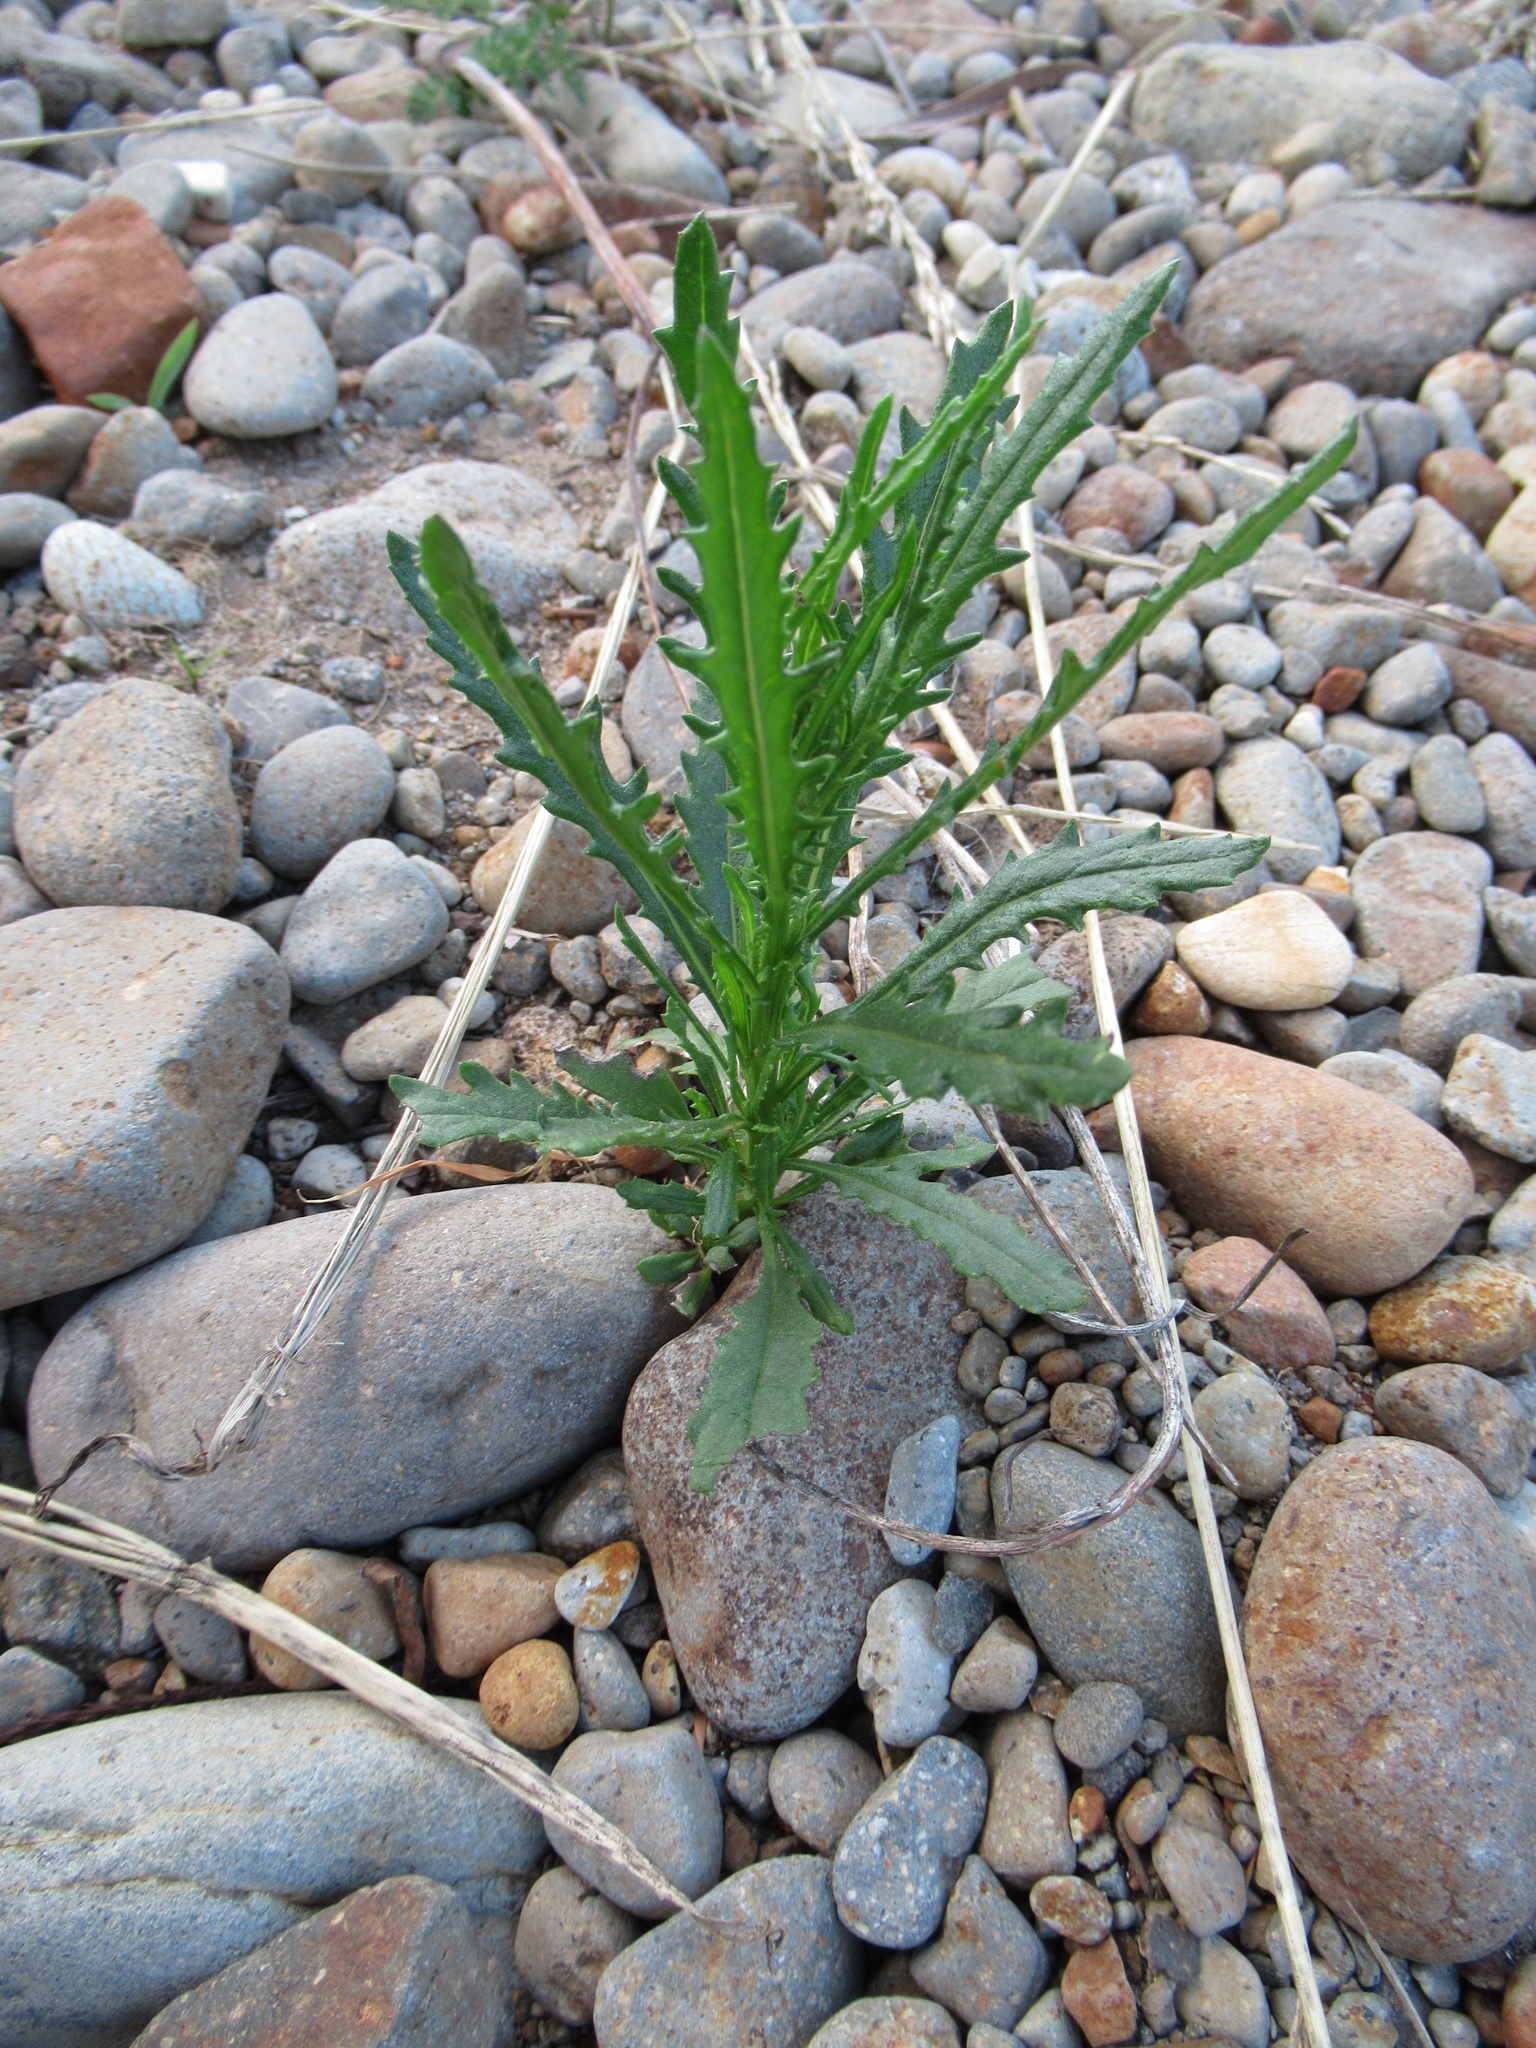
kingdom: Plantae
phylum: Tracheophyta
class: Magnoliopsida
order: Asterales
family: Asteraceae
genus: Senecio
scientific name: Senecio biserratus
